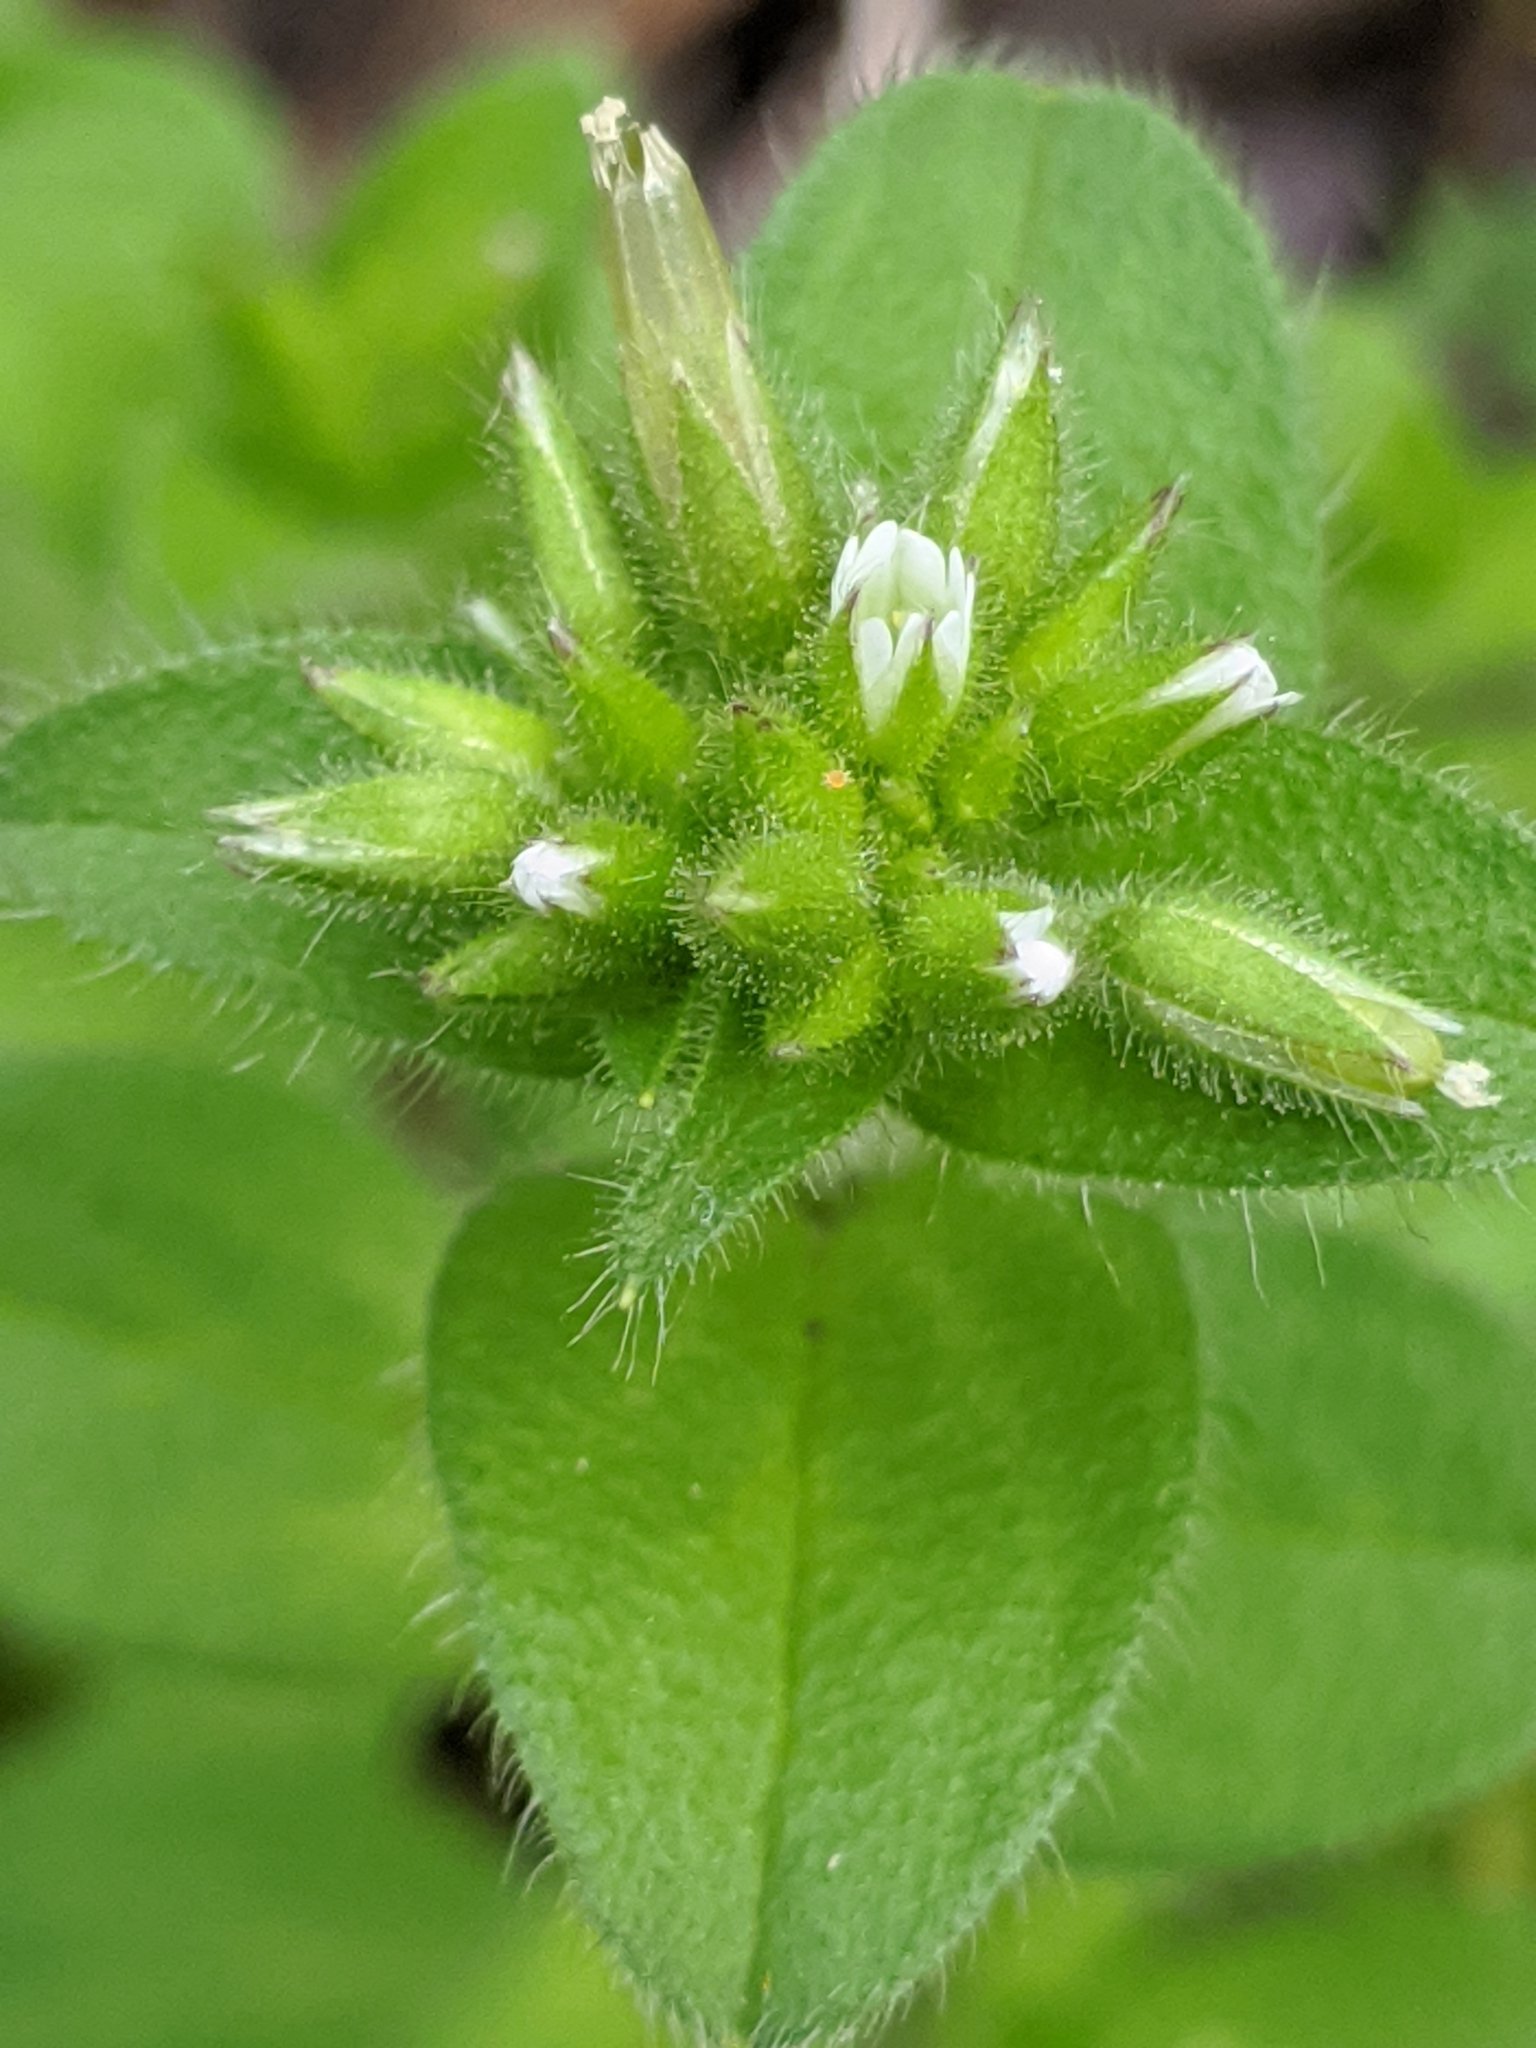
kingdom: Plantae
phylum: Tracheophyta
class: Magnoliopsida
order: Caryophyllales
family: Caryophyllaceae
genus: Cerastium
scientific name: Cerastium glomeratum
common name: Sticky chickweed
